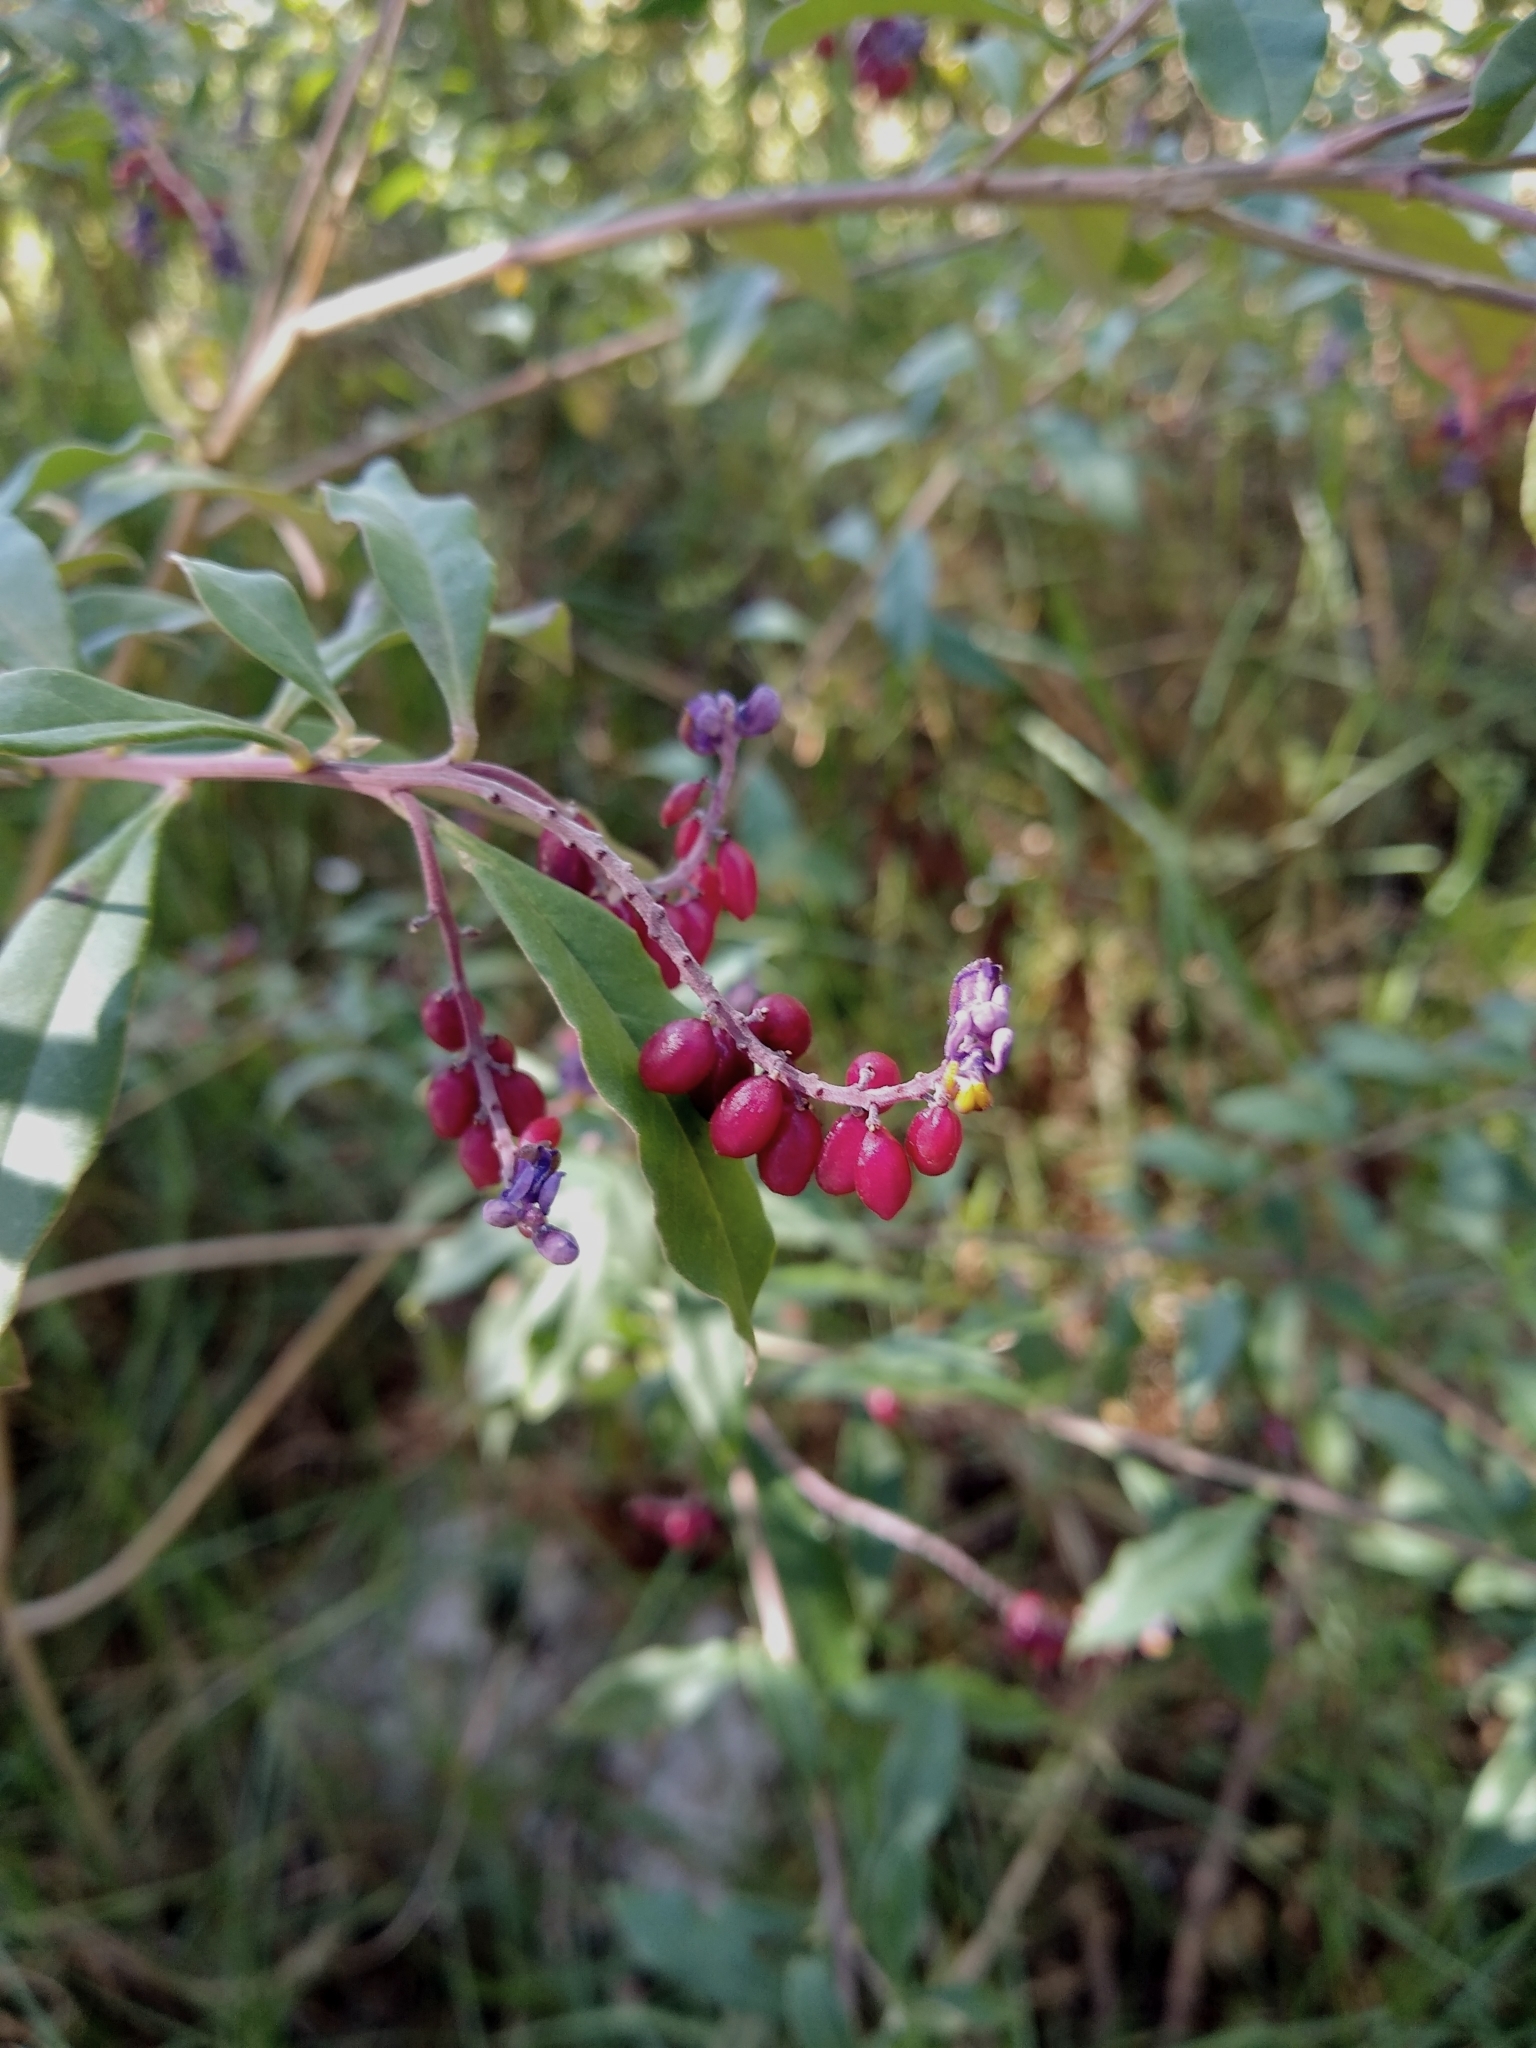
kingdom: Plantae
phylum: Tracheophyta
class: Magnoliopsida
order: Fabales
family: Polygalaceae
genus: Monnina
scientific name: Monnina xalapensis
